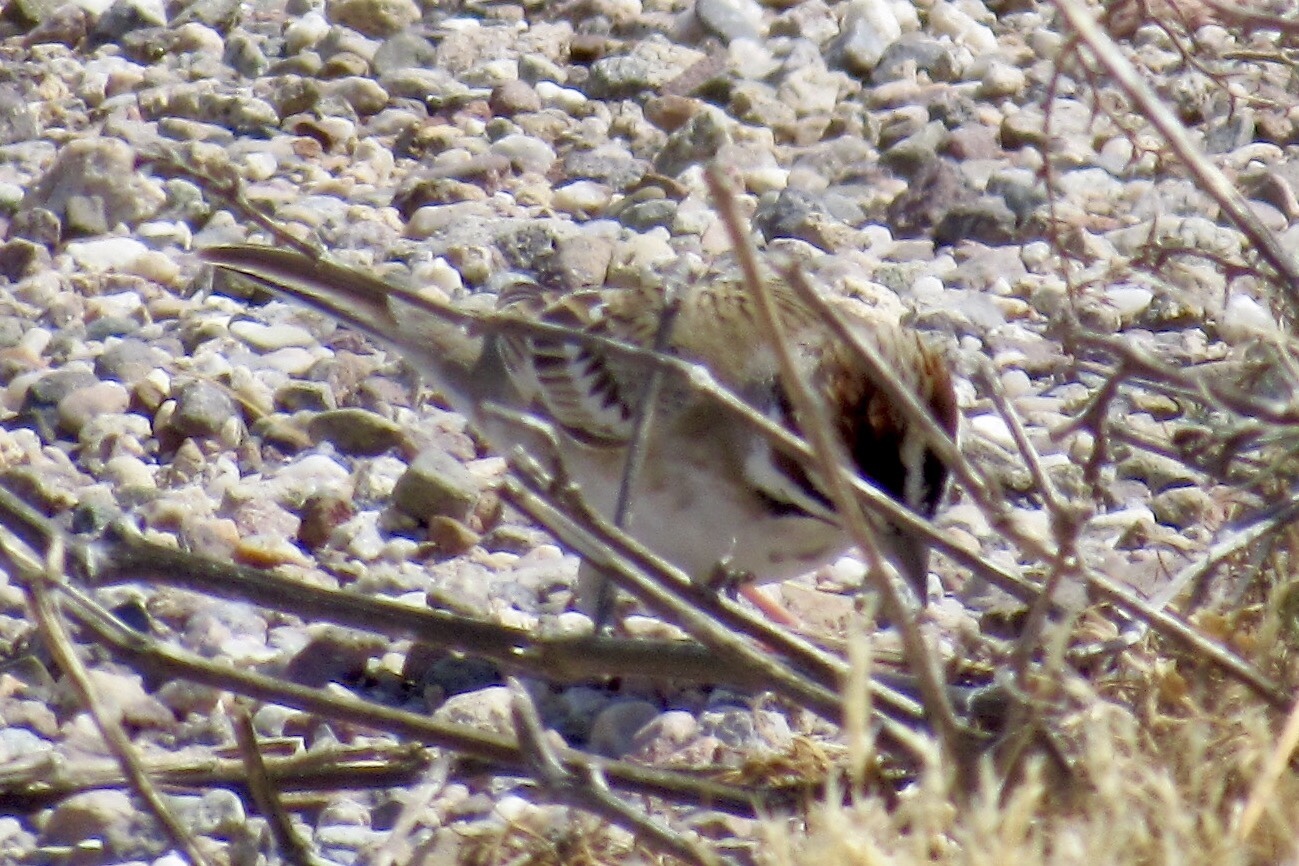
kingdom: Animalia
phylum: Chordata
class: Aves
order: Passeriformes
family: Passerellidae
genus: Chondestes
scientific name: Chondestes grammacus
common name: Lark sparrow
